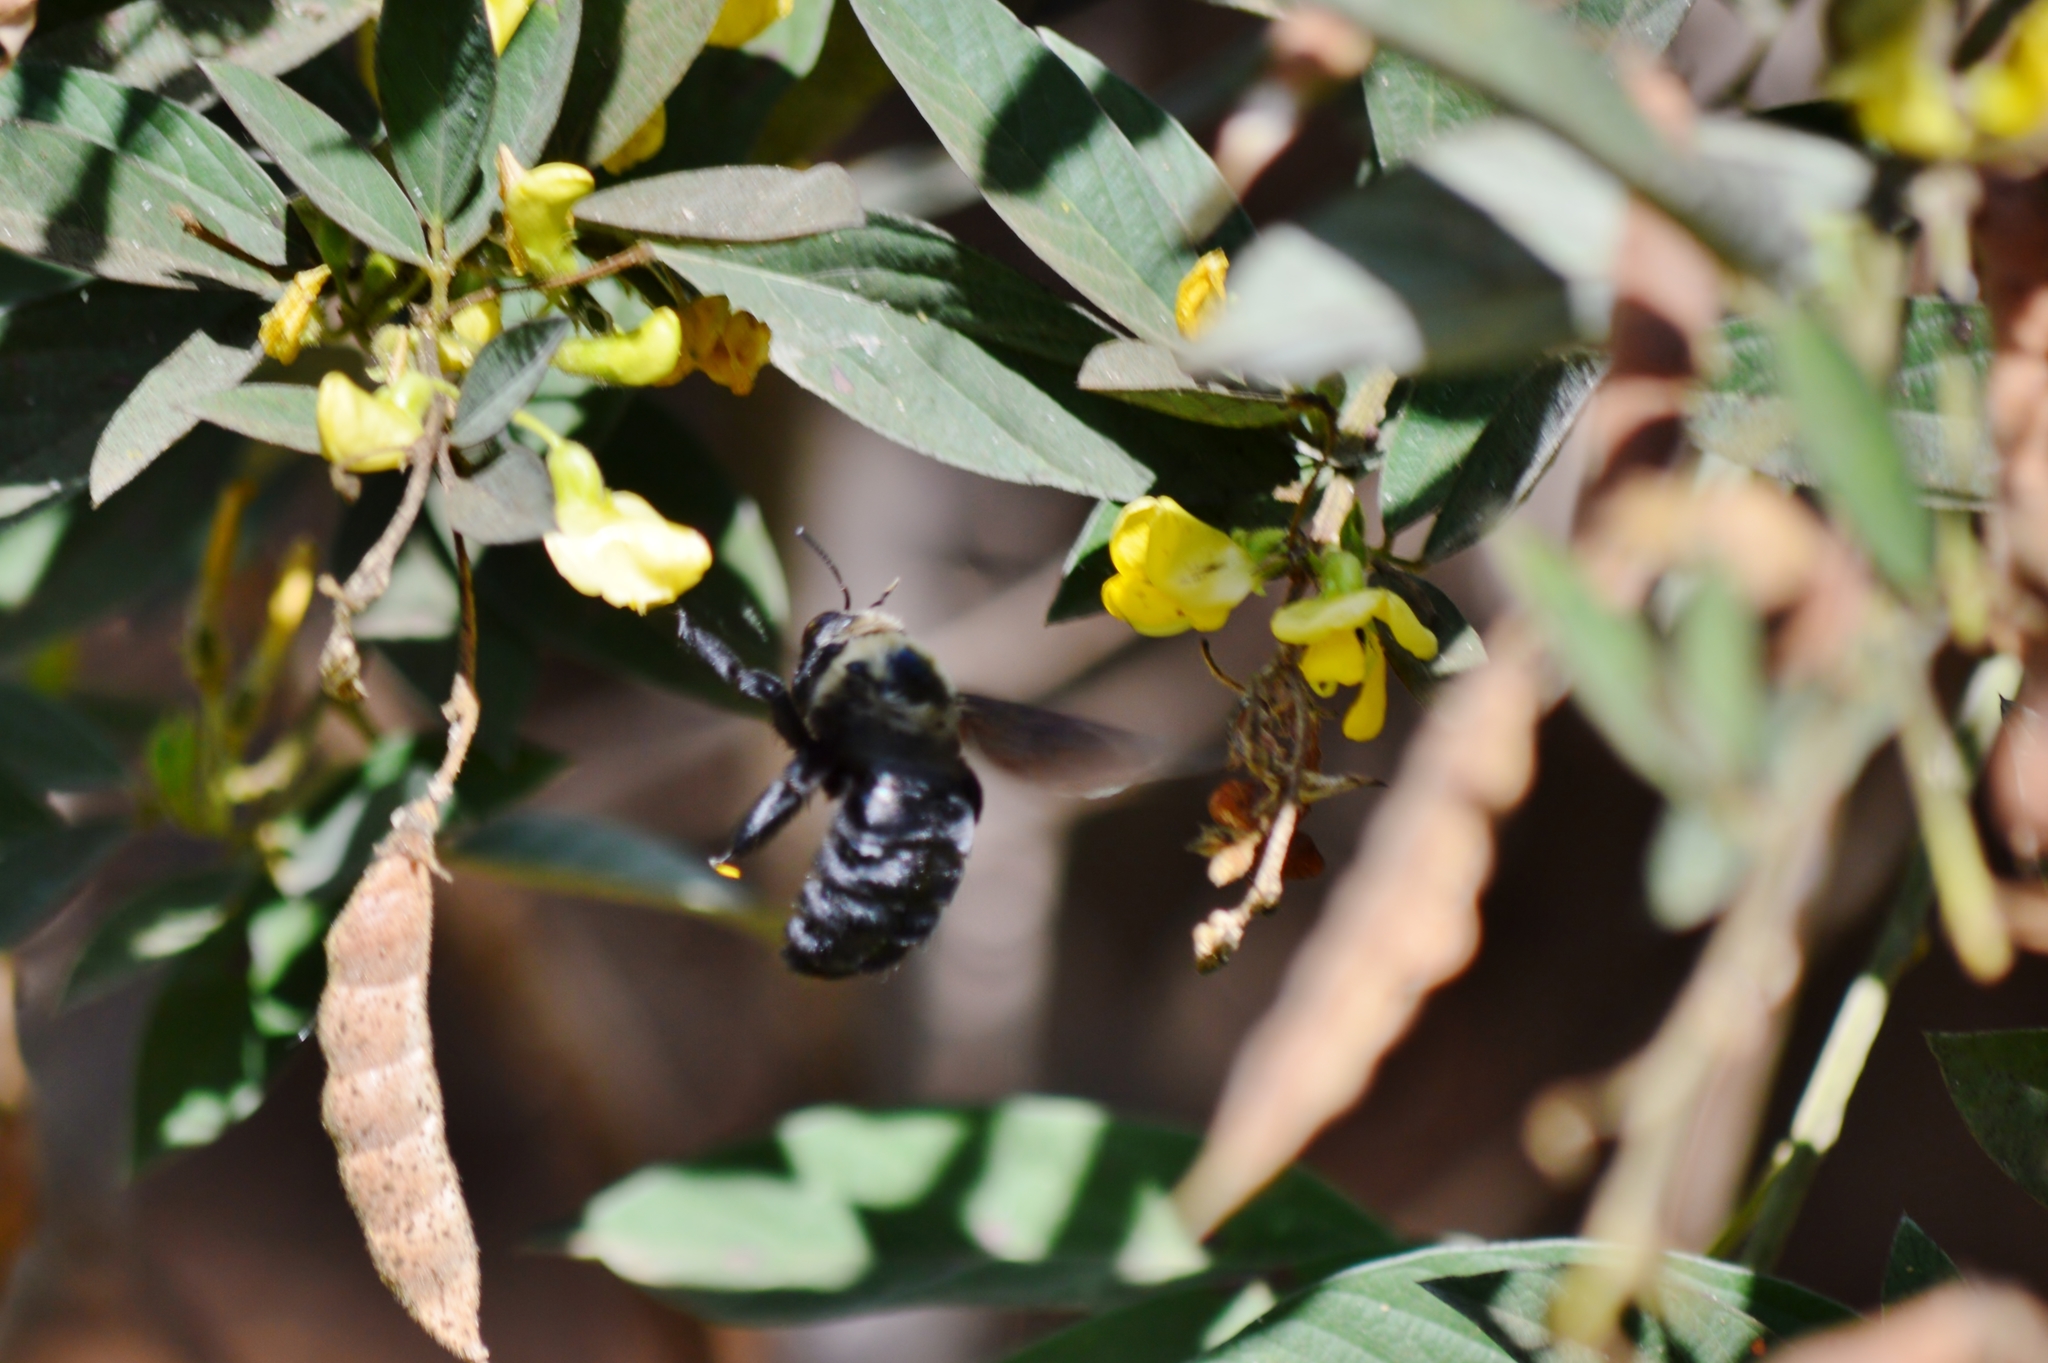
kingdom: Animalia
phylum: Arthropoda
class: Insecta
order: Hymenoptera
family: Apidae
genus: Xylocopa
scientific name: Xylocopa grisescens
